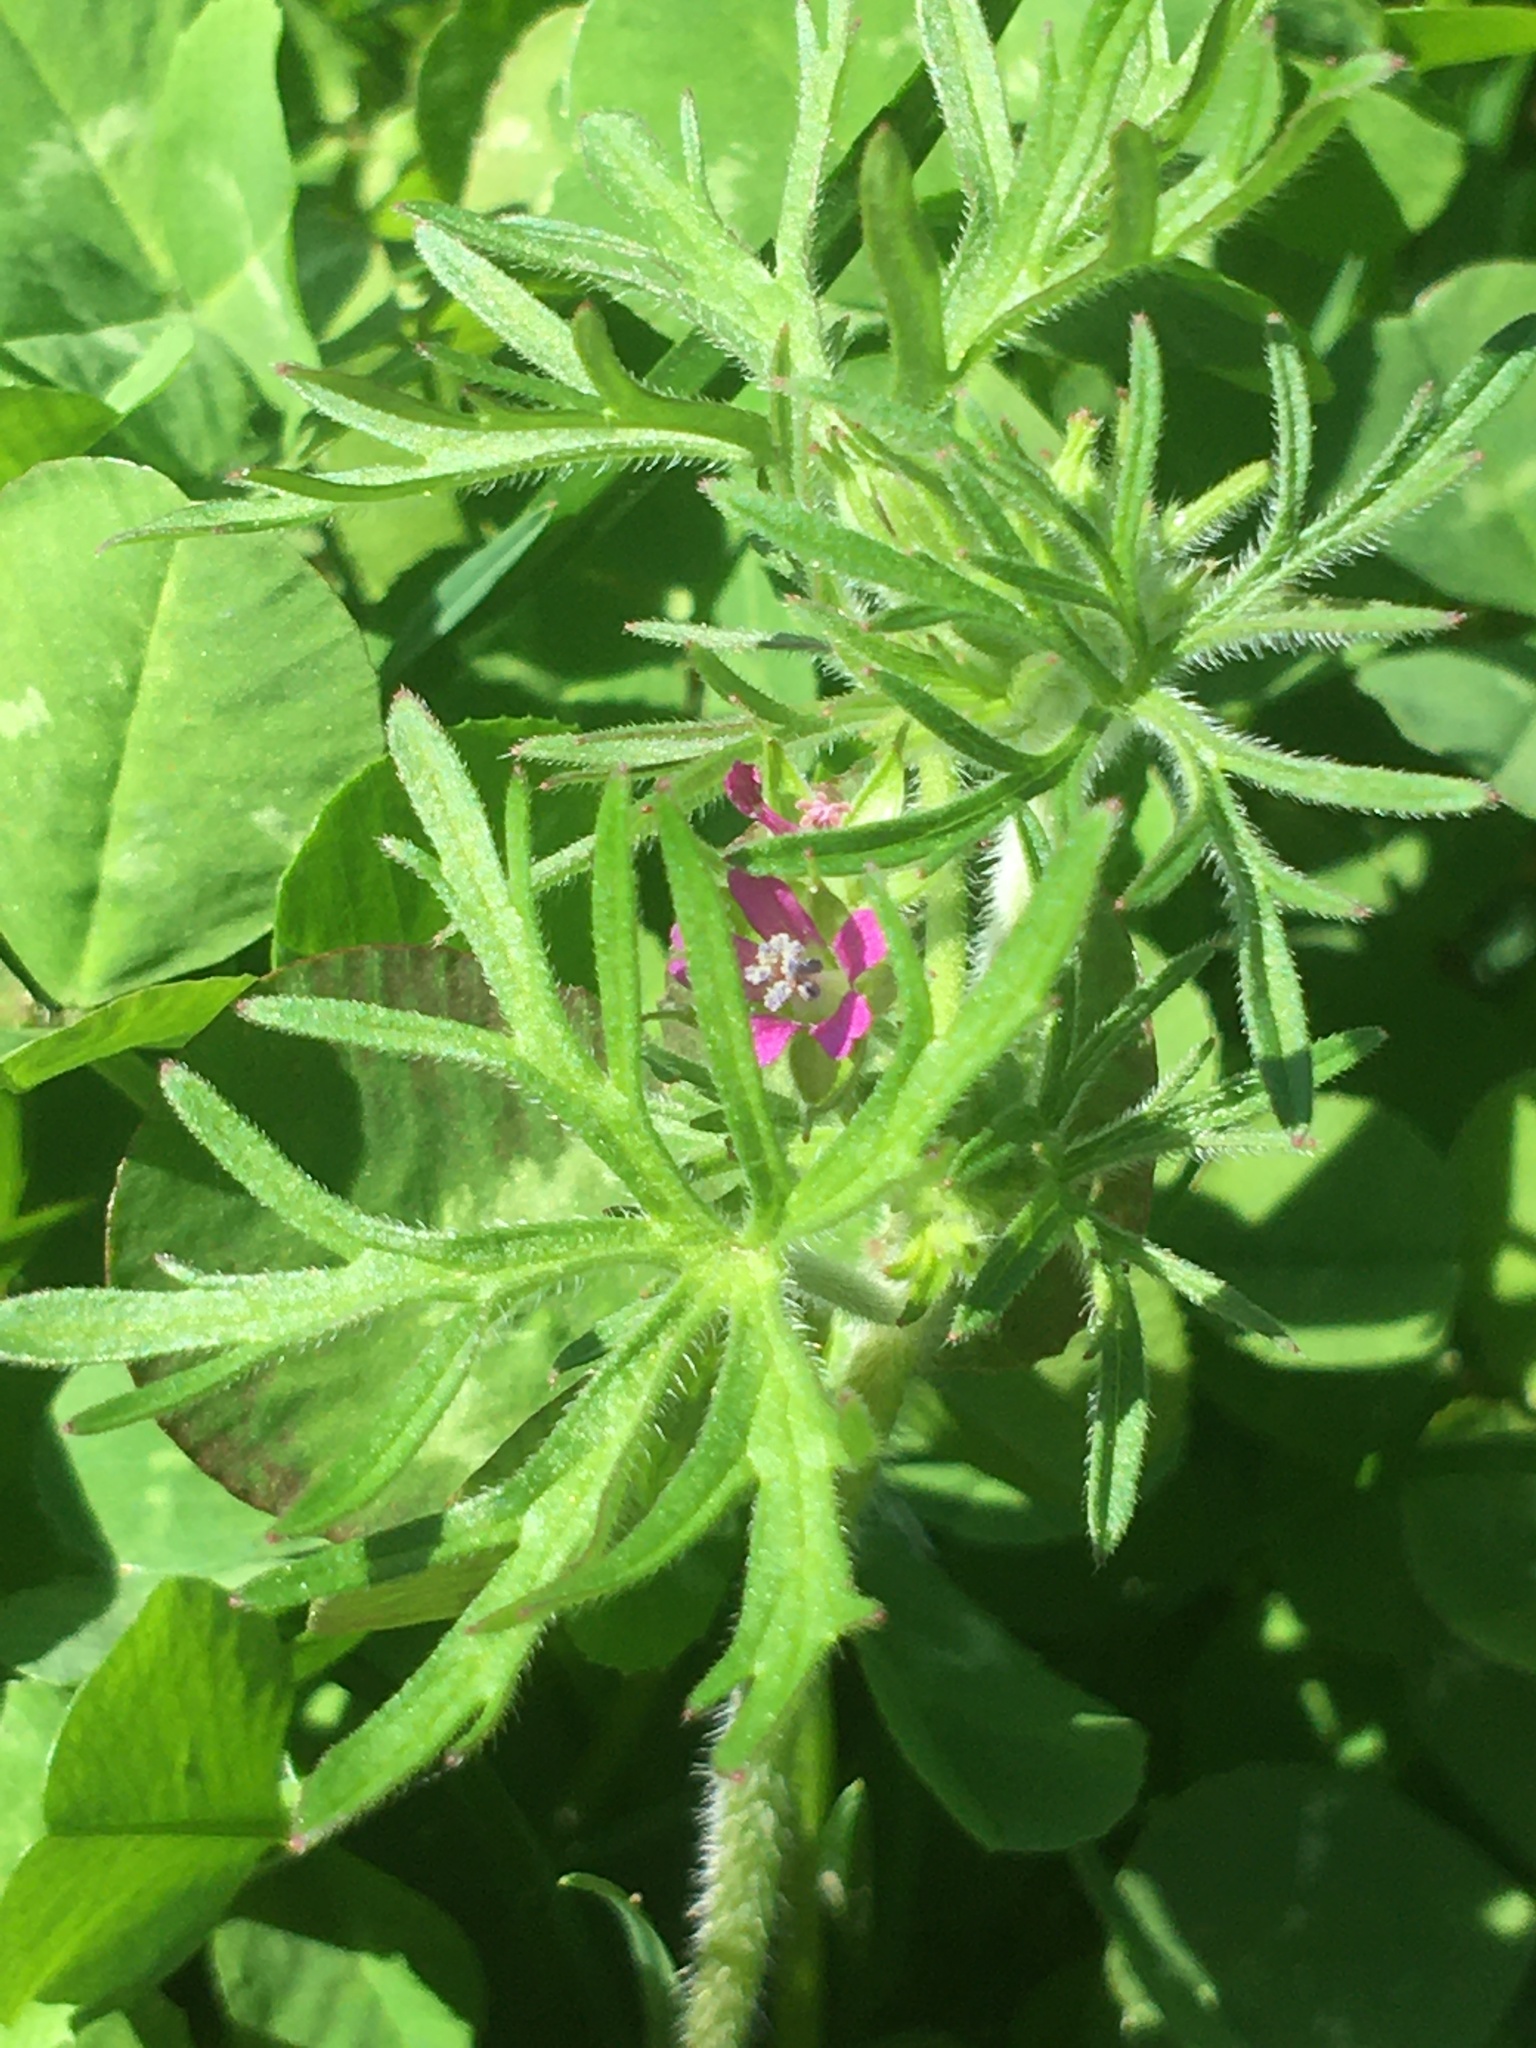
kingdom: Plantae
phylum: Tracheophyta
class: Magnoliopsida
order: Geraniales
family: Geraniaceae
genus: Geranium
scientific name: Geranium dissectum
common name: Cut-leaved crane's-bill
